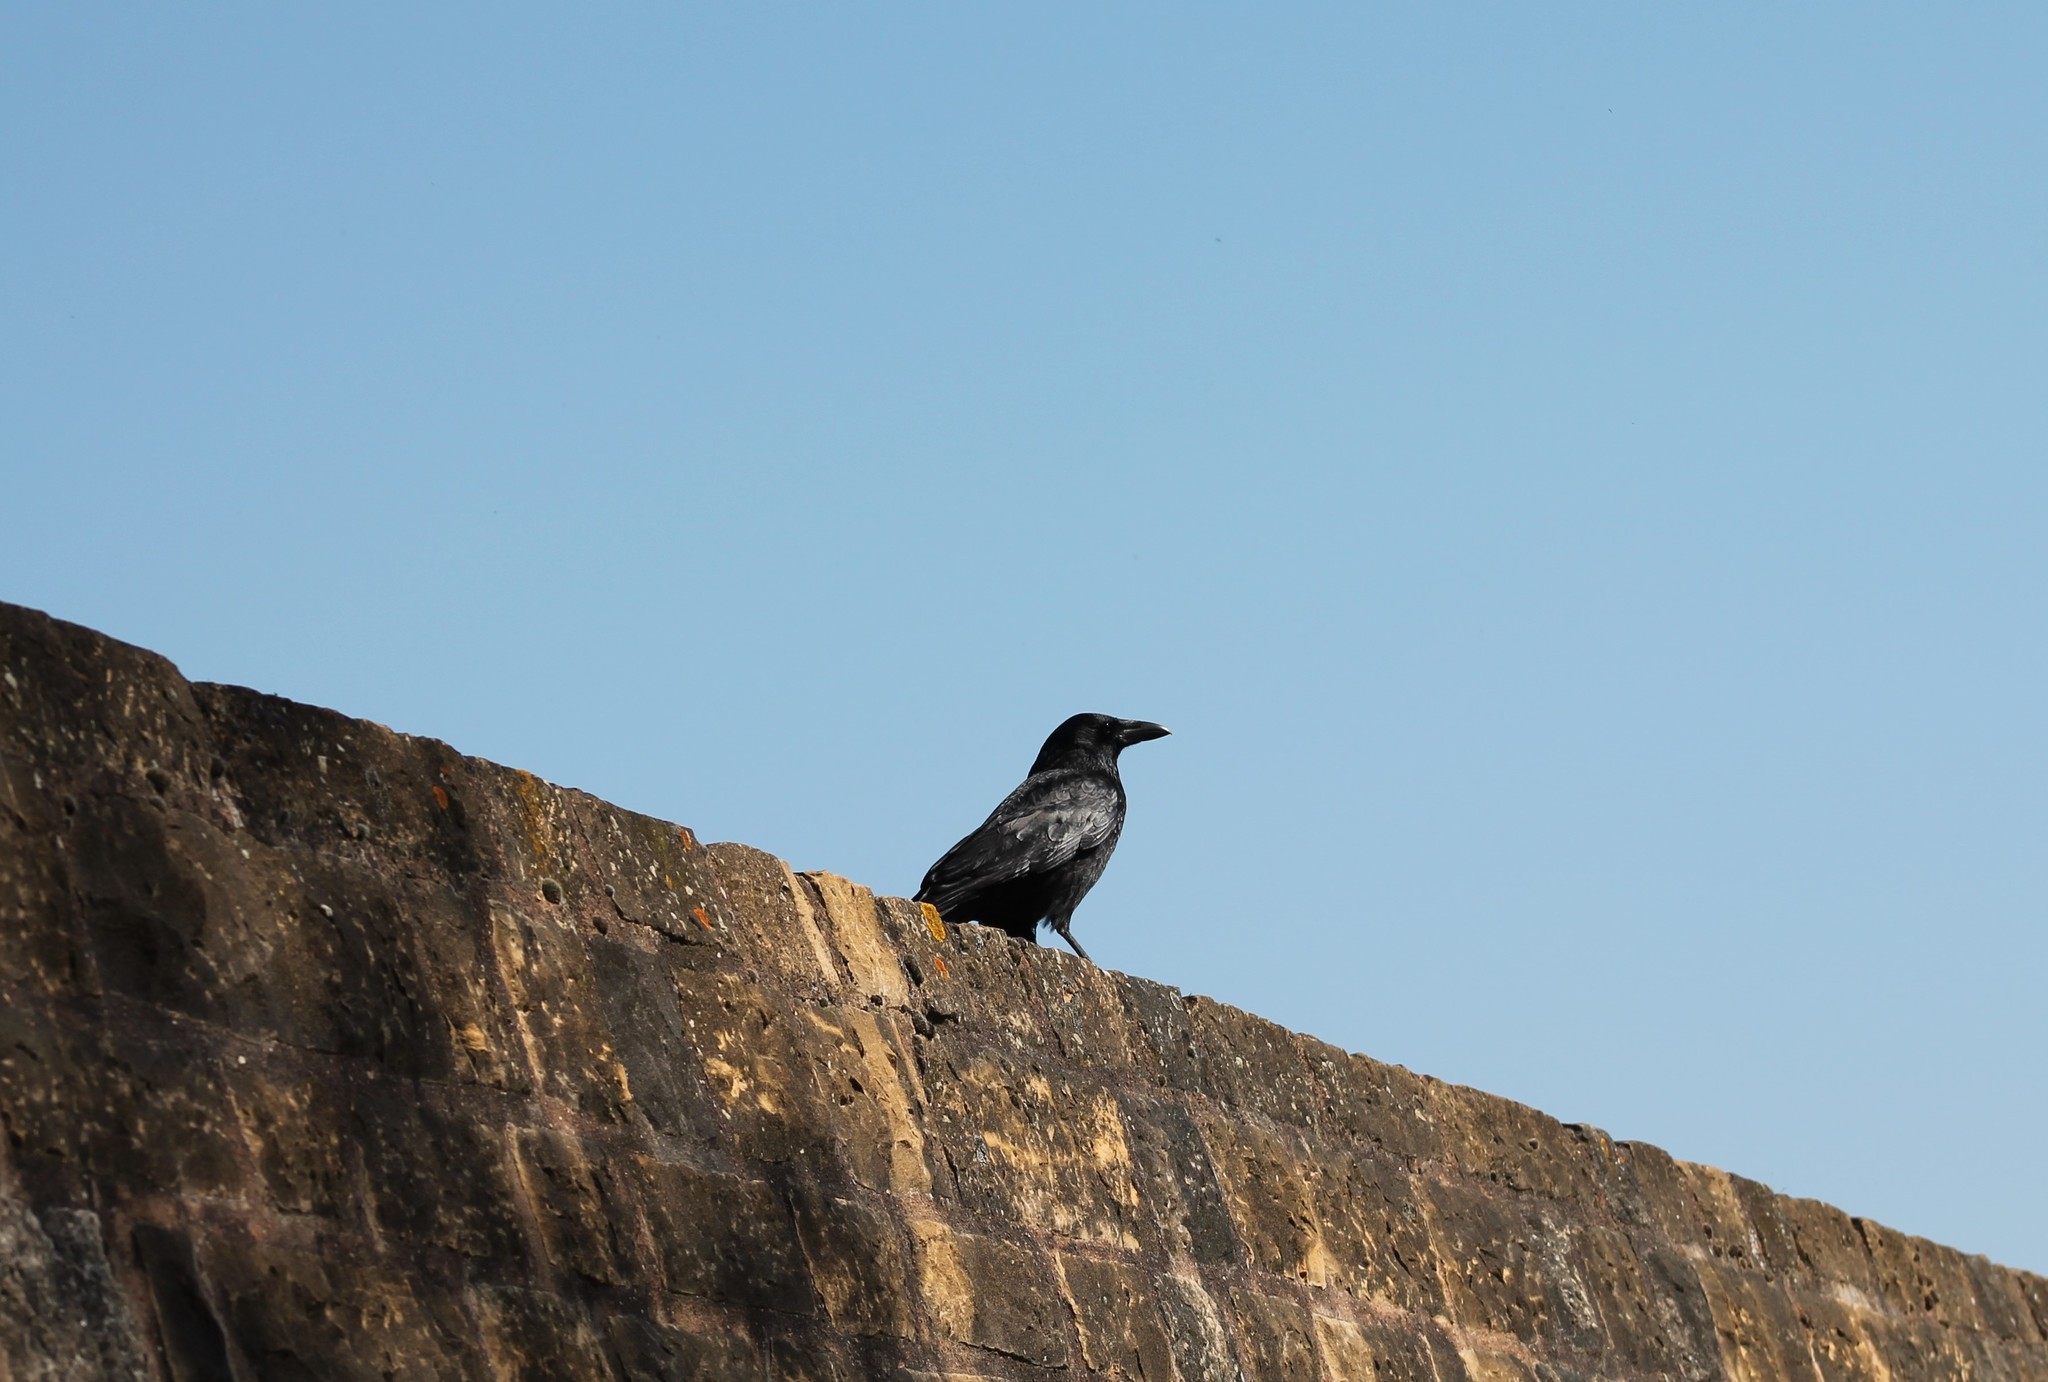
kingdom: Animalia
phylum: Chordata
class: Aves
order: Passeriformes
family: Corvidae
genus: Corvus
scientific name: Corvus corone
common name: Carrion crow
